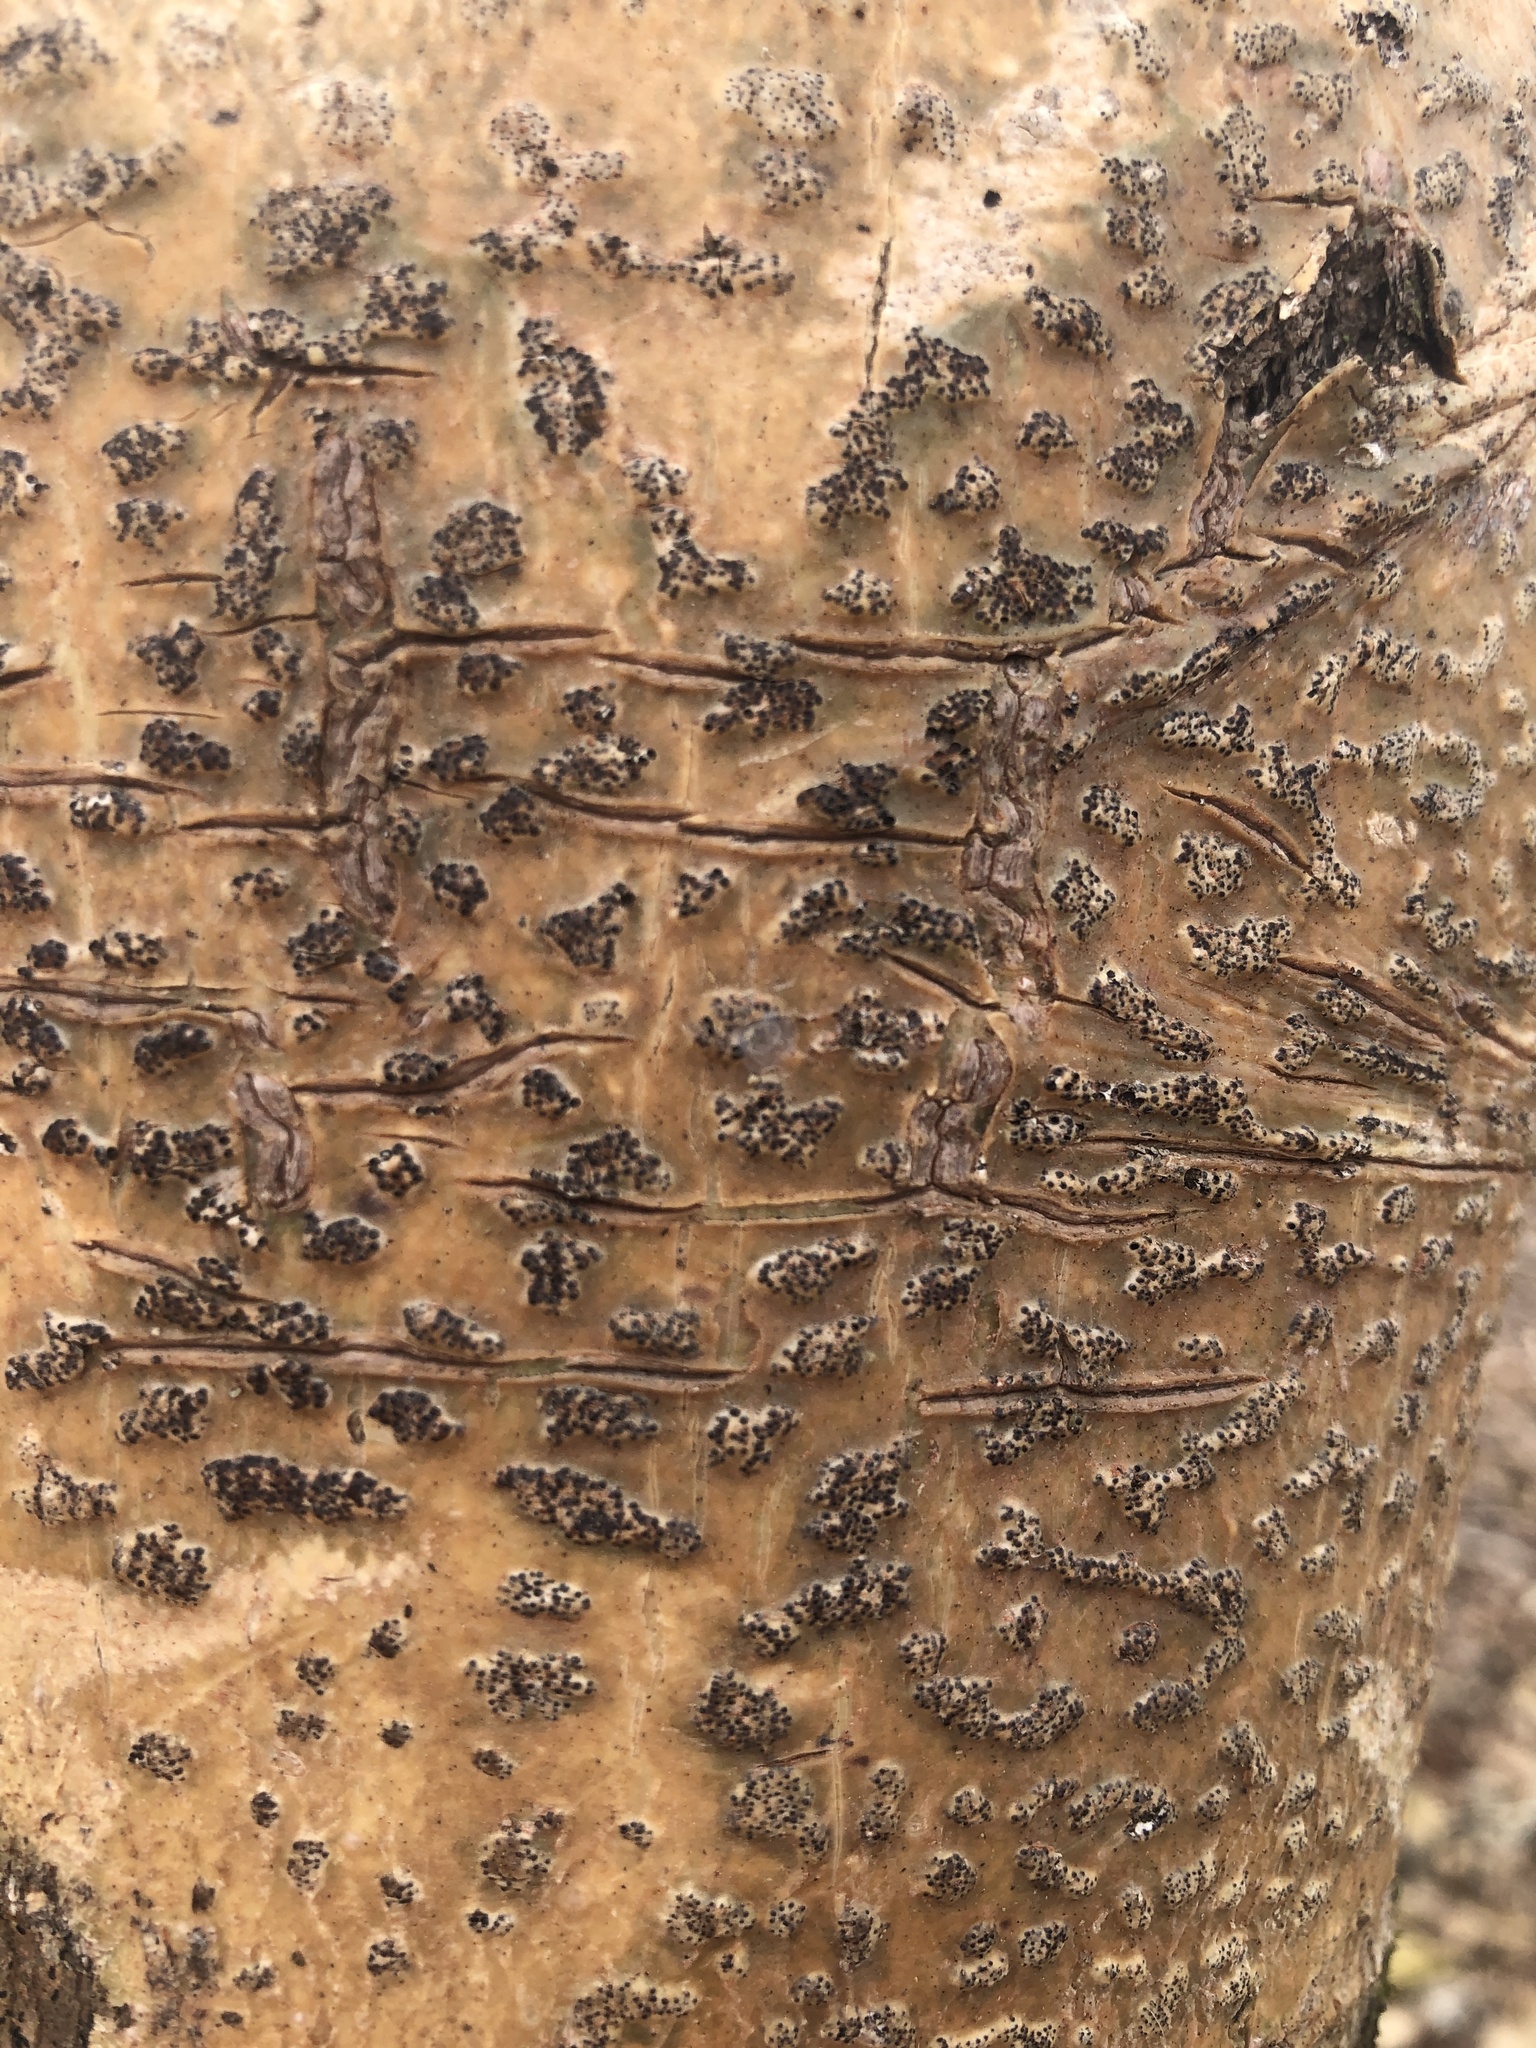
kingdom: Fungi
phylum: Ascomycota
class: Dothideomycetes
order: Trypetheliales
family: Trypetheliaceae
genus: Viridothelium
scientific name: Viridothelium virens
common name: Speckled blister lichen
